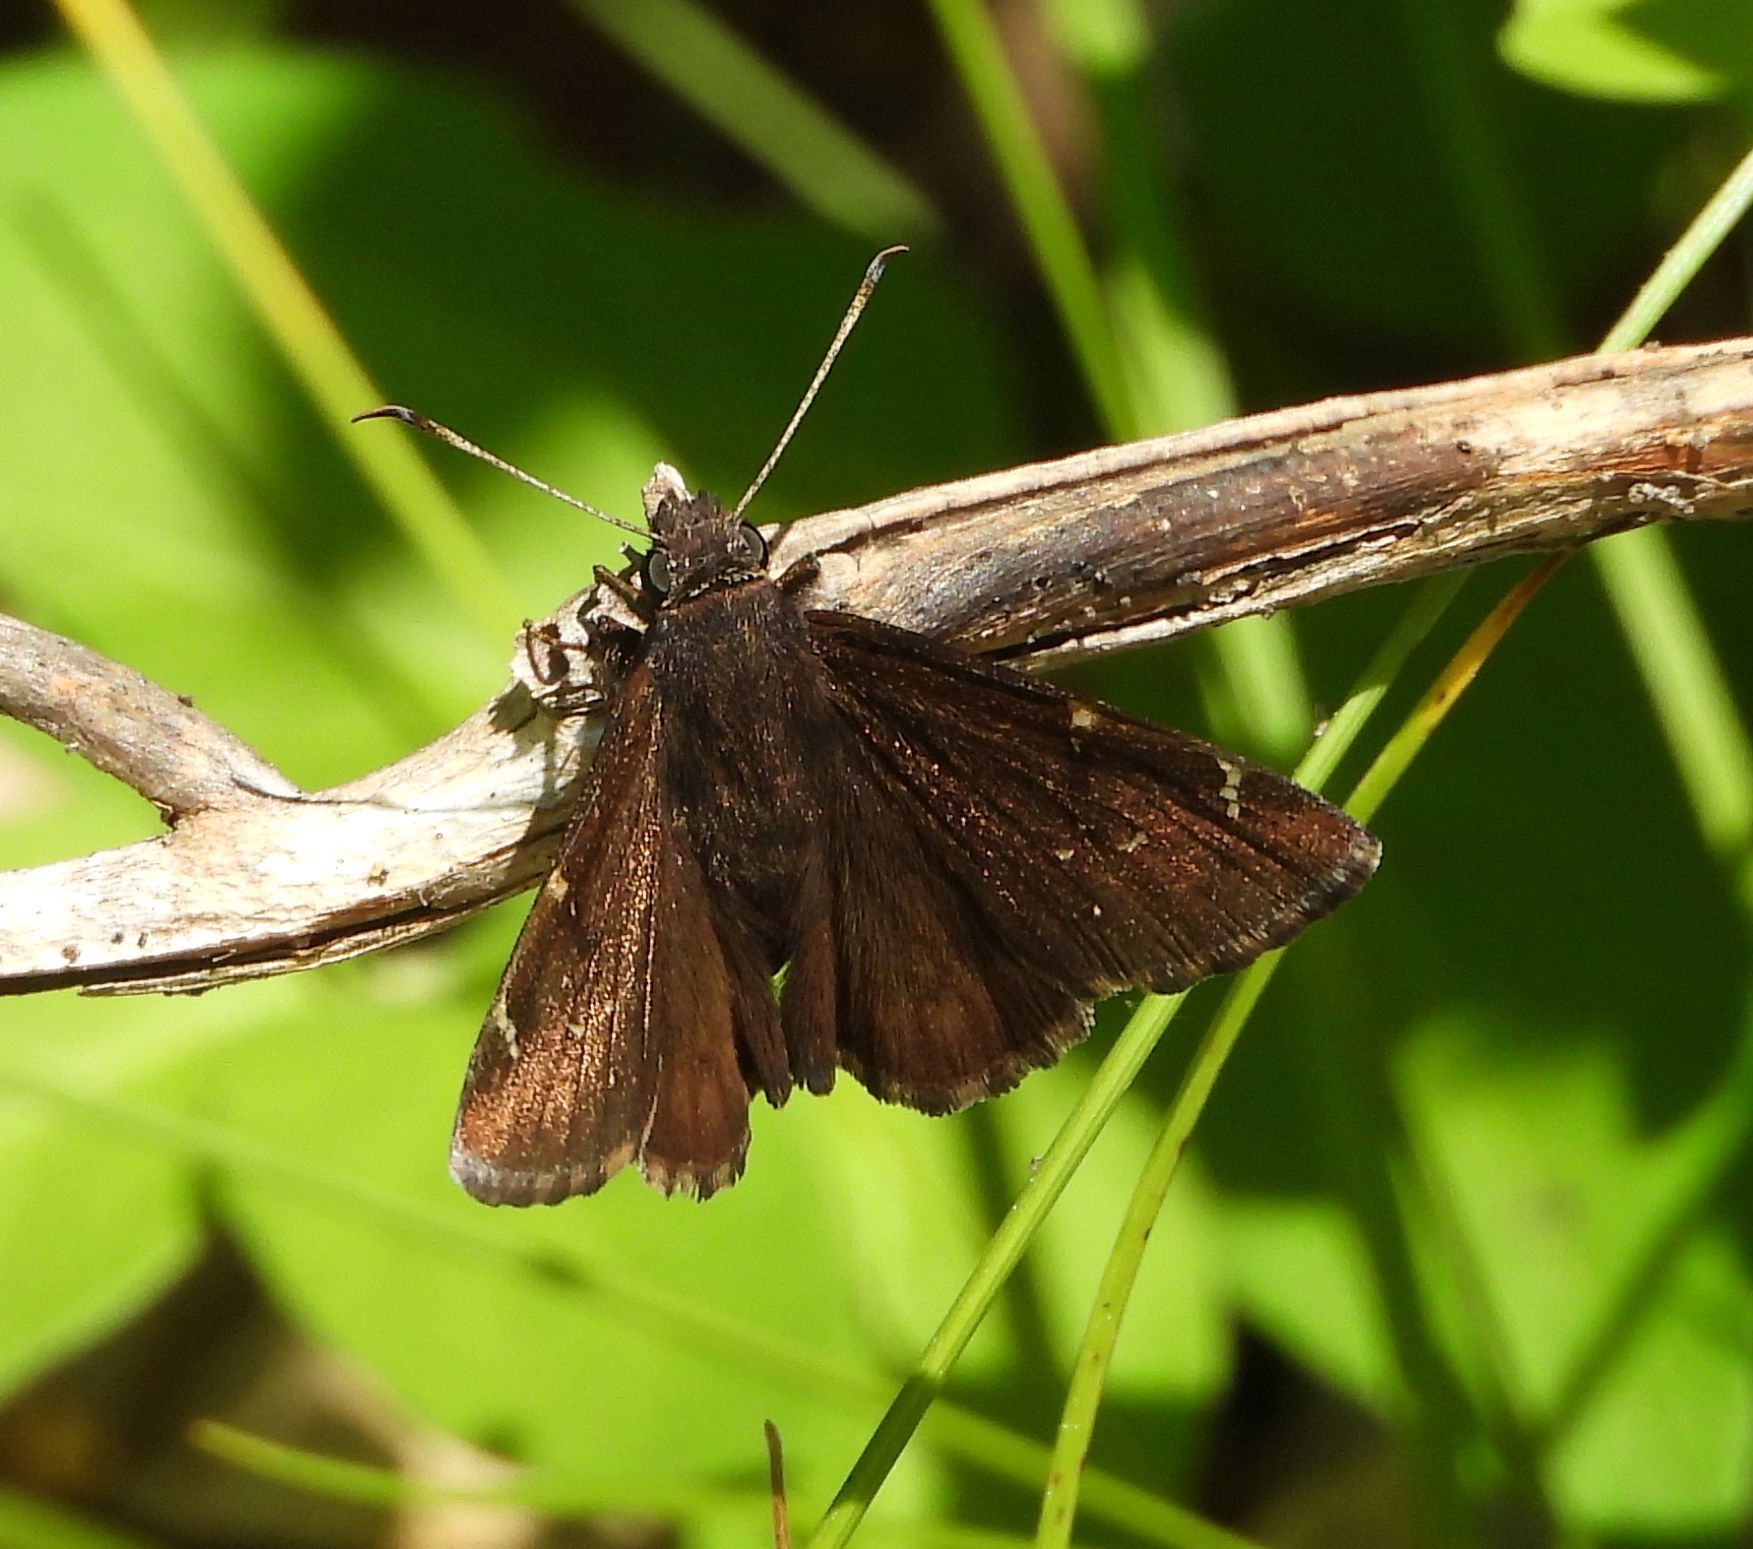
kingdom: Animalia
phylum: Arthropoda
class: Insecta
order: Lepidoptera
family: Hesperiidae
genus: Thorybes
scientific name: Thorybes pylades
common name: Northern cloudywing
